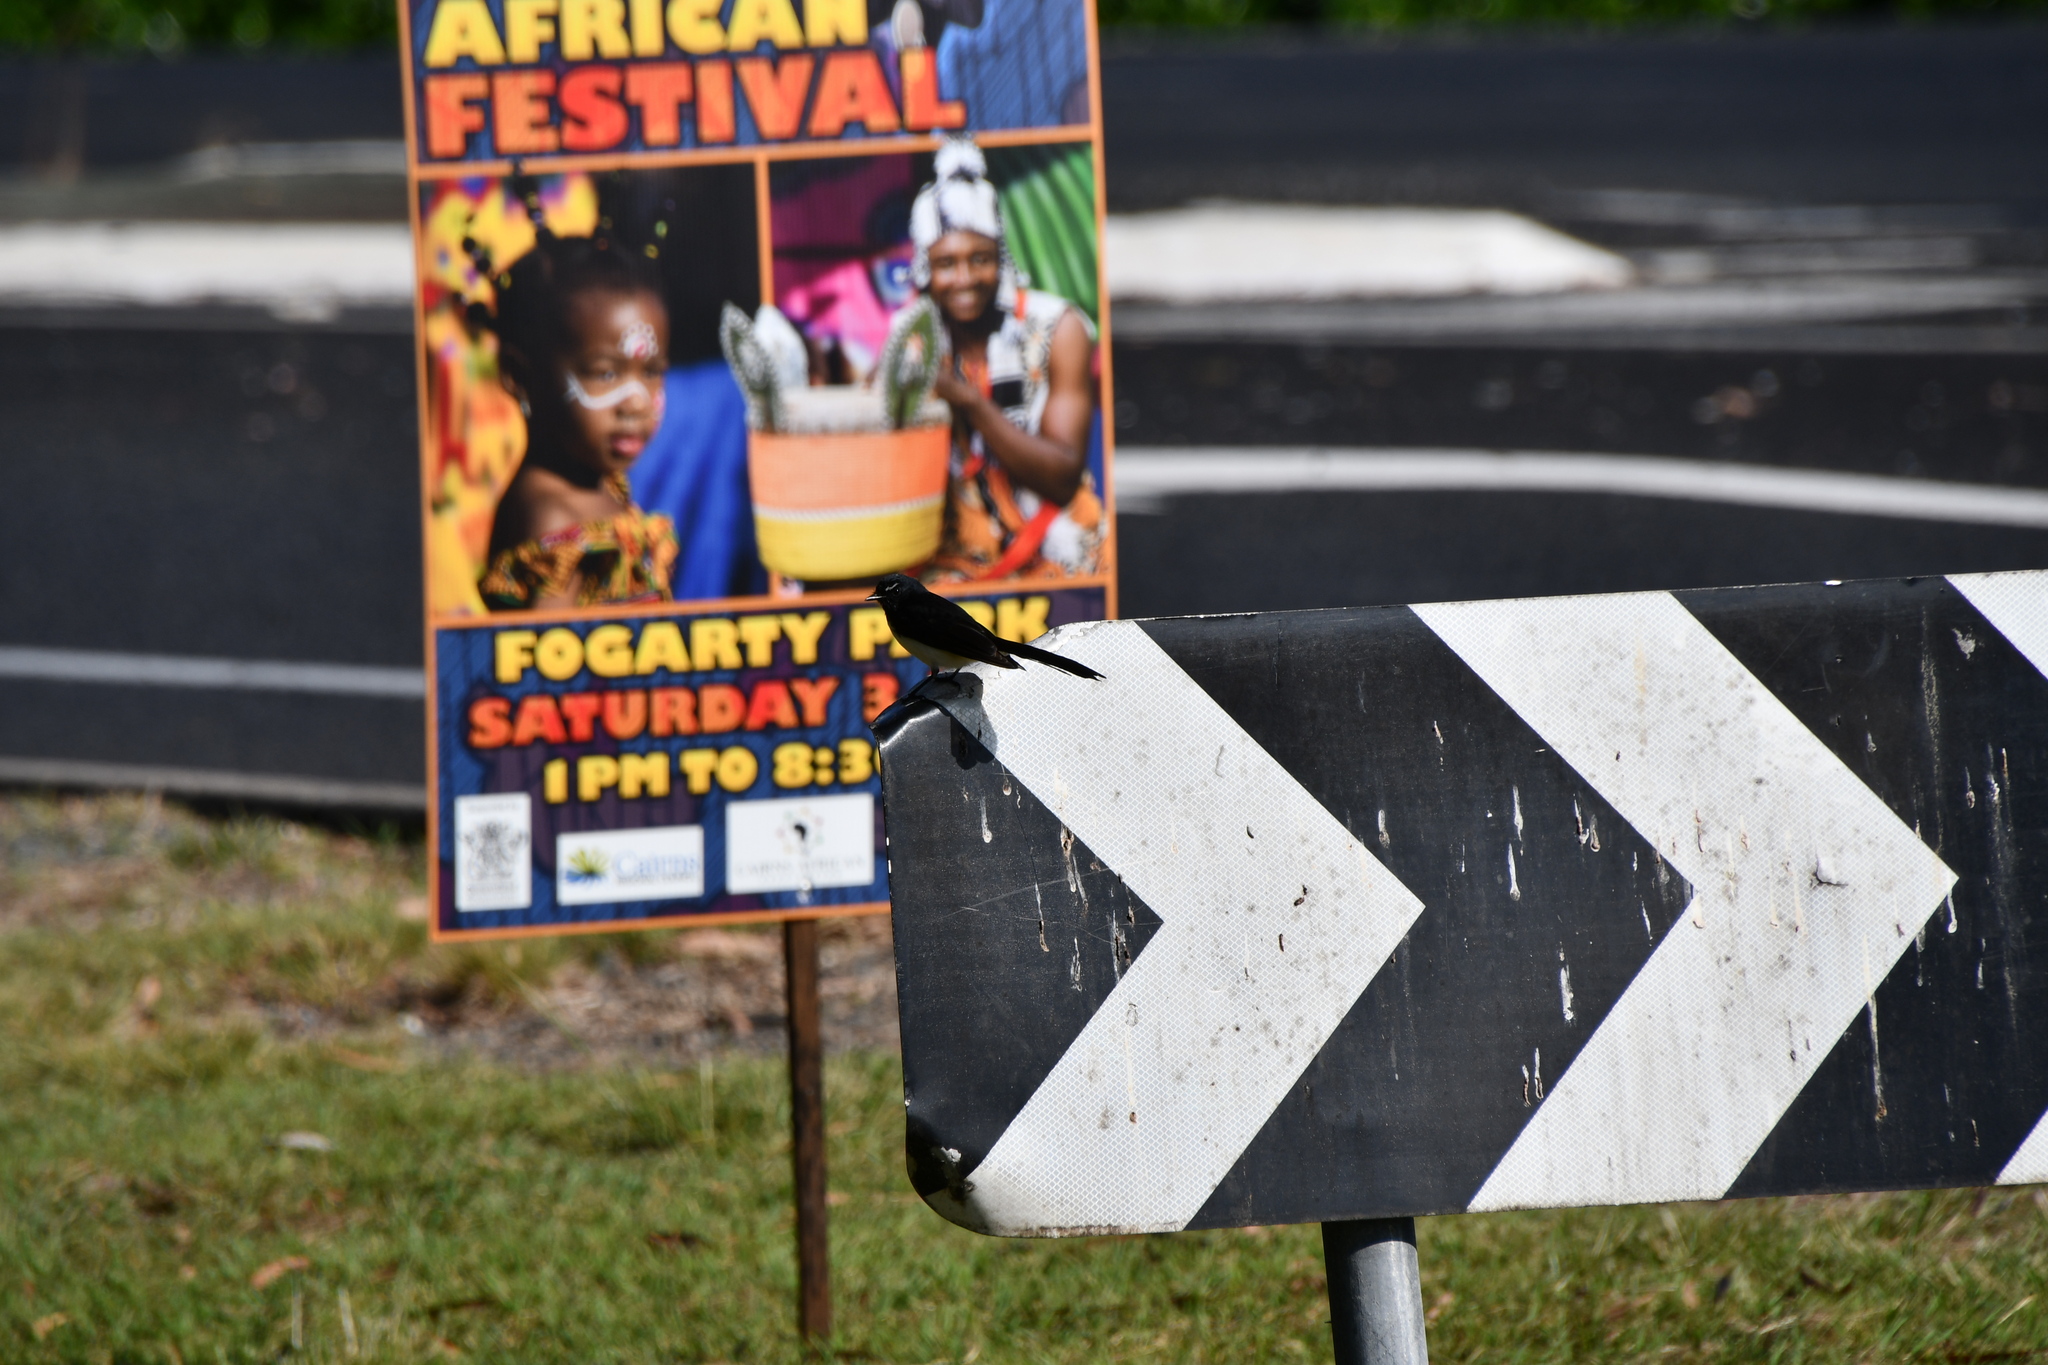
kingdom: Animalia
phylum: Chordata
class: Aves
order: Passeriformes
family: Rhipiduridae
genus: Rhipidura
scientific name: Rhipidura leucophrys
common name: Willie wagtail
